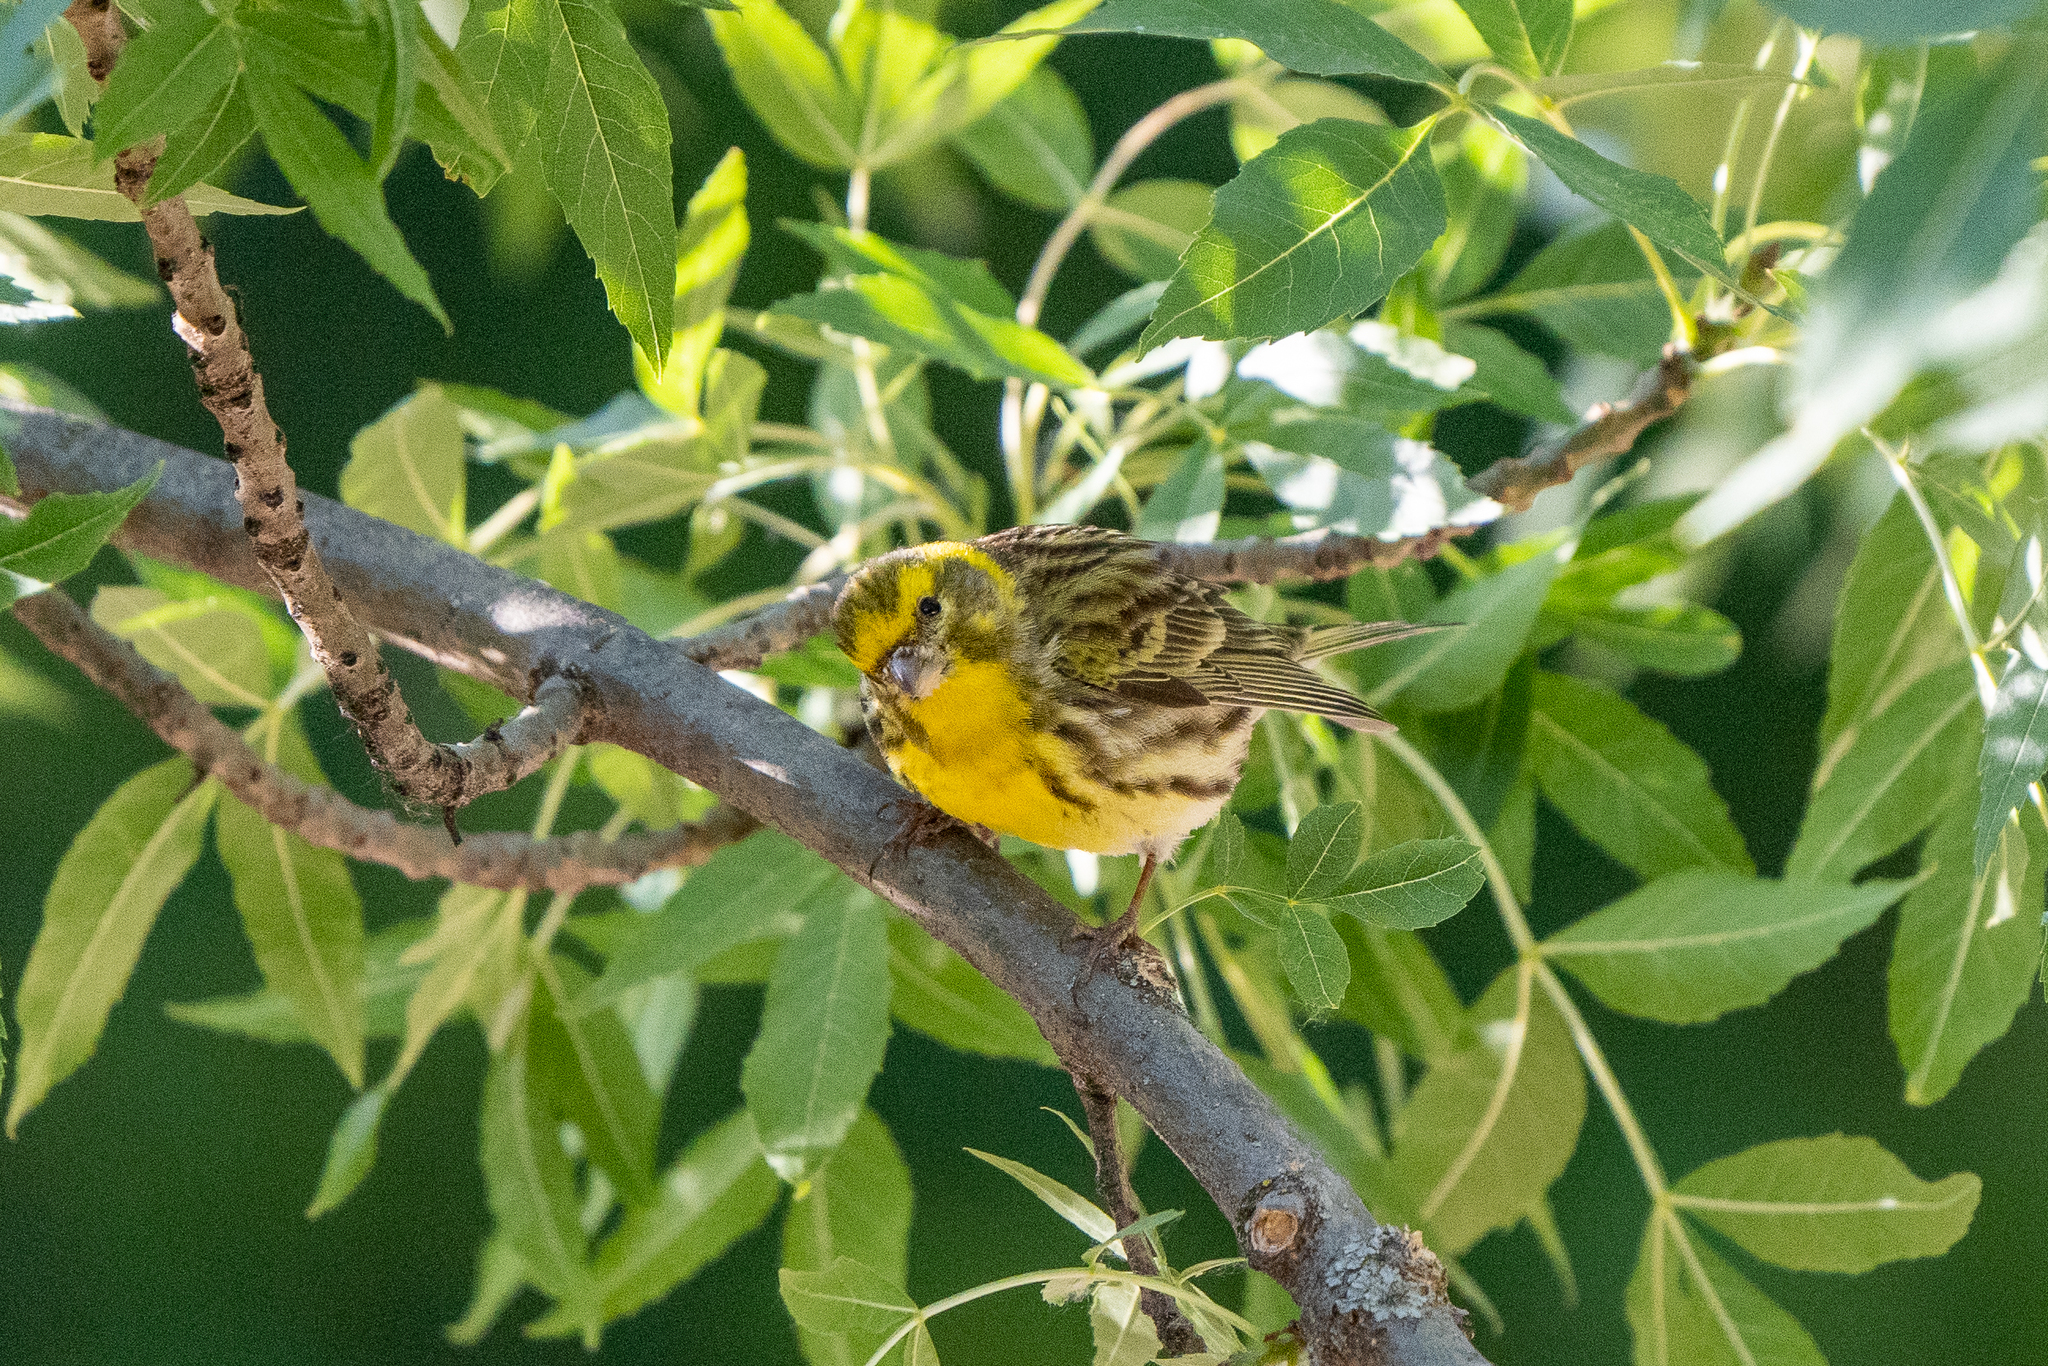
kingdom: Animalia
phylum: Chordata
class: Aves
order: Passeriformes
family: Fringillidae
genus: Serinus
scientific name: Serinus serinus
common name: European serin
